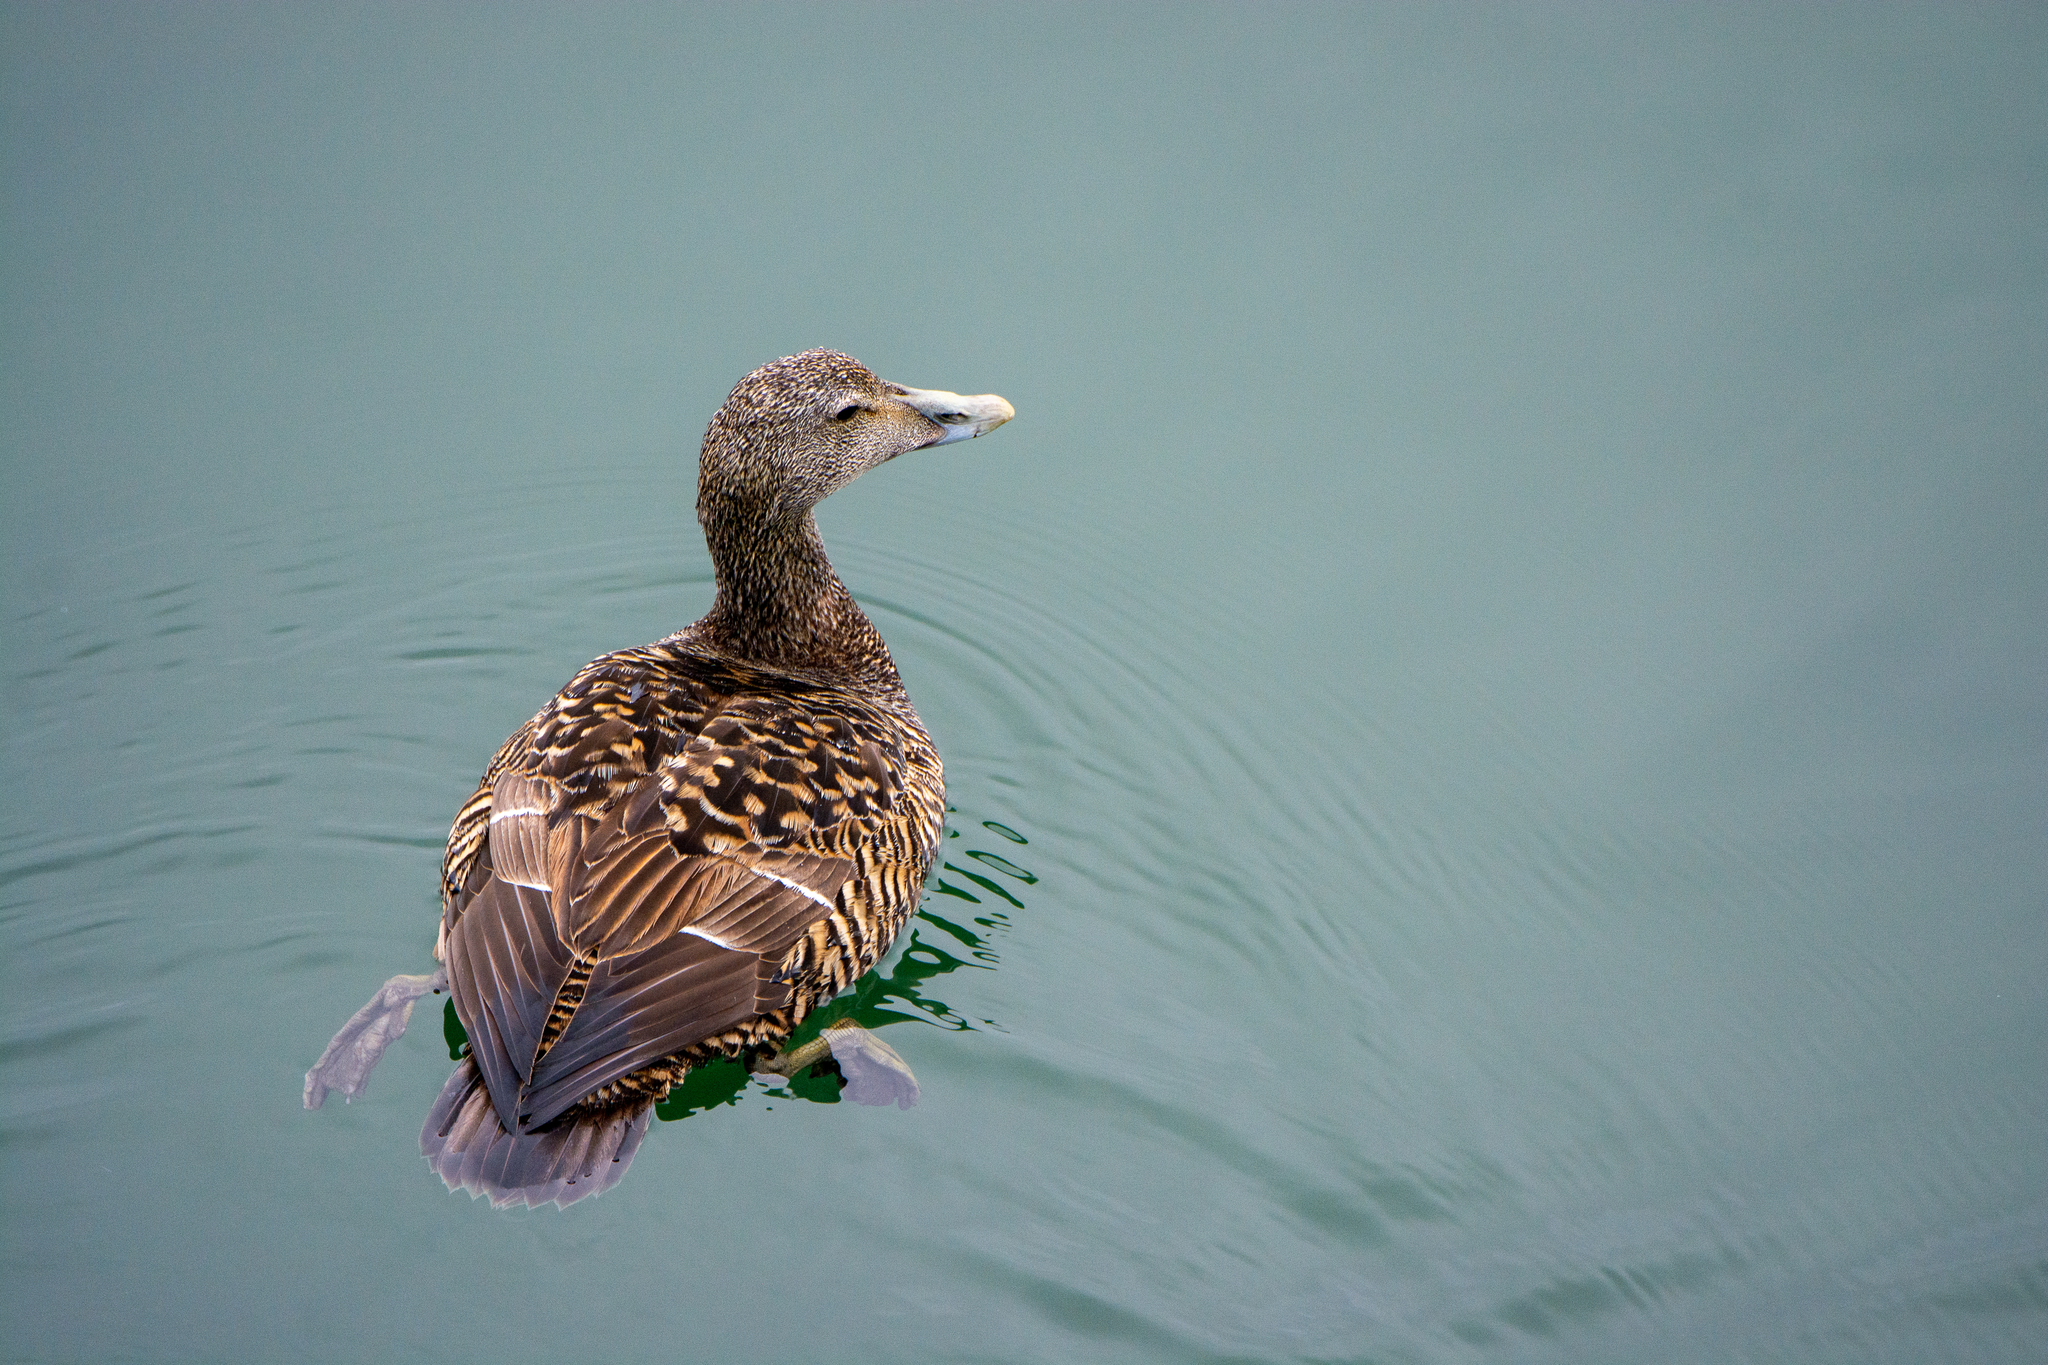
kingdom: Animalia
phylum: Chordata
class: Aves
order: Anseriformes
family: Anatidae
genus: Somateria
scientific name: Somateria mollissima
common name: Common eider
